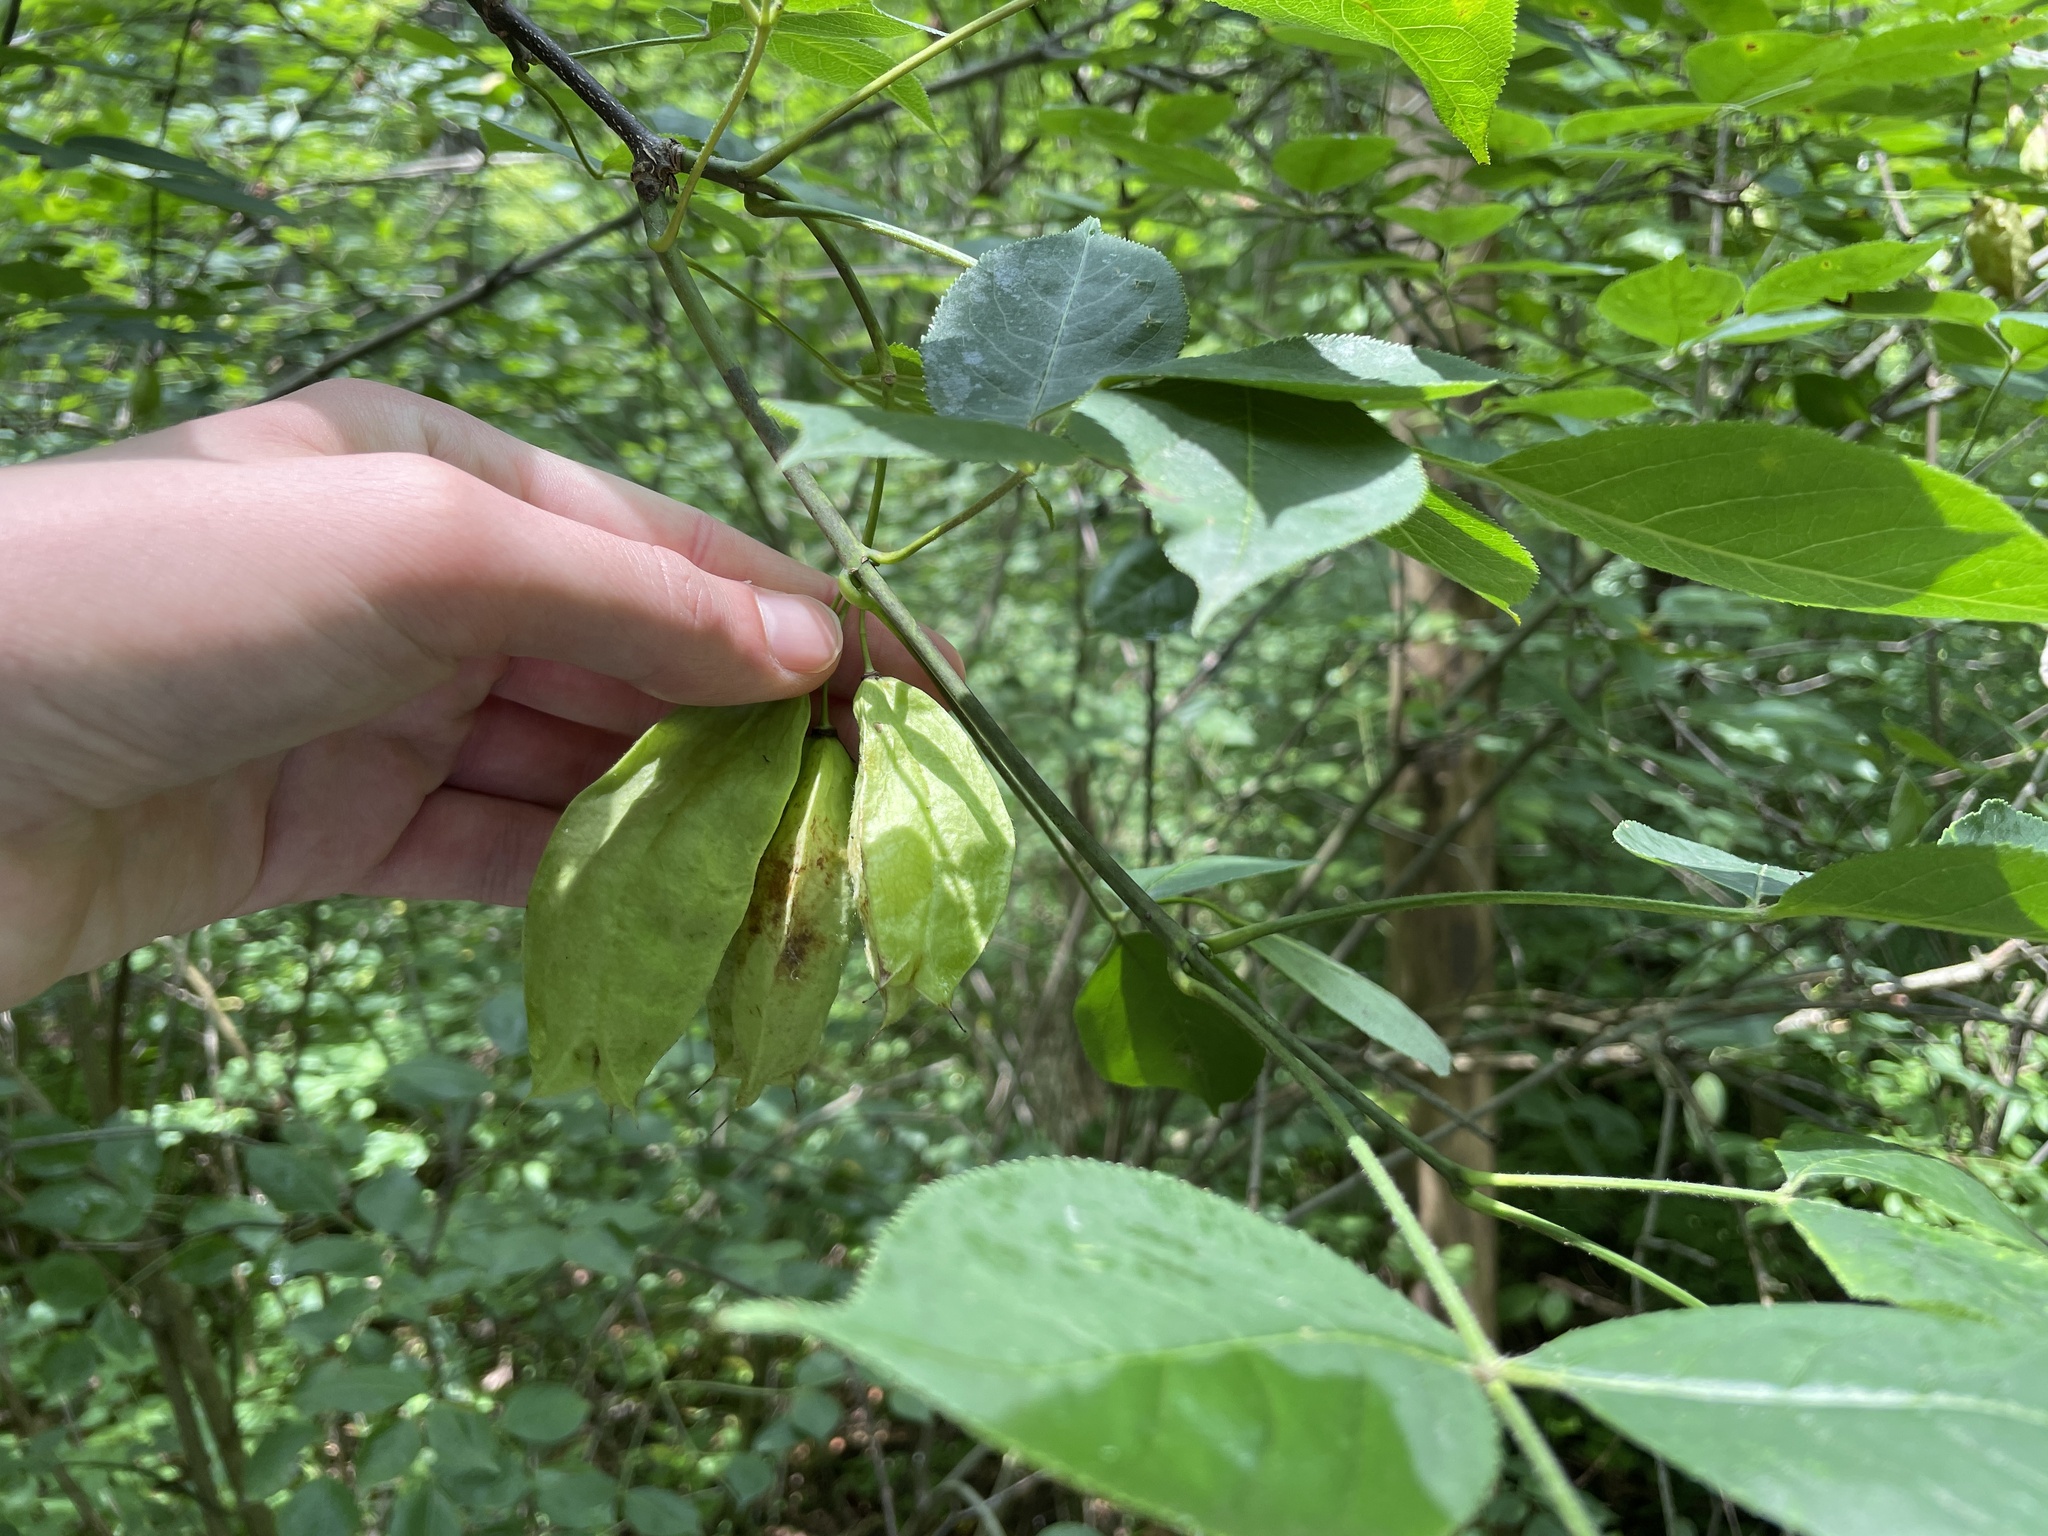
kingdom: Plantae
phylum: Tracheophyta
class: Magnoliopsida
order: Crossosomatales
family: Staphyleaceae
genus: Staphylea
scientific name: Staphylea trifolia
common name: American bladdernut
